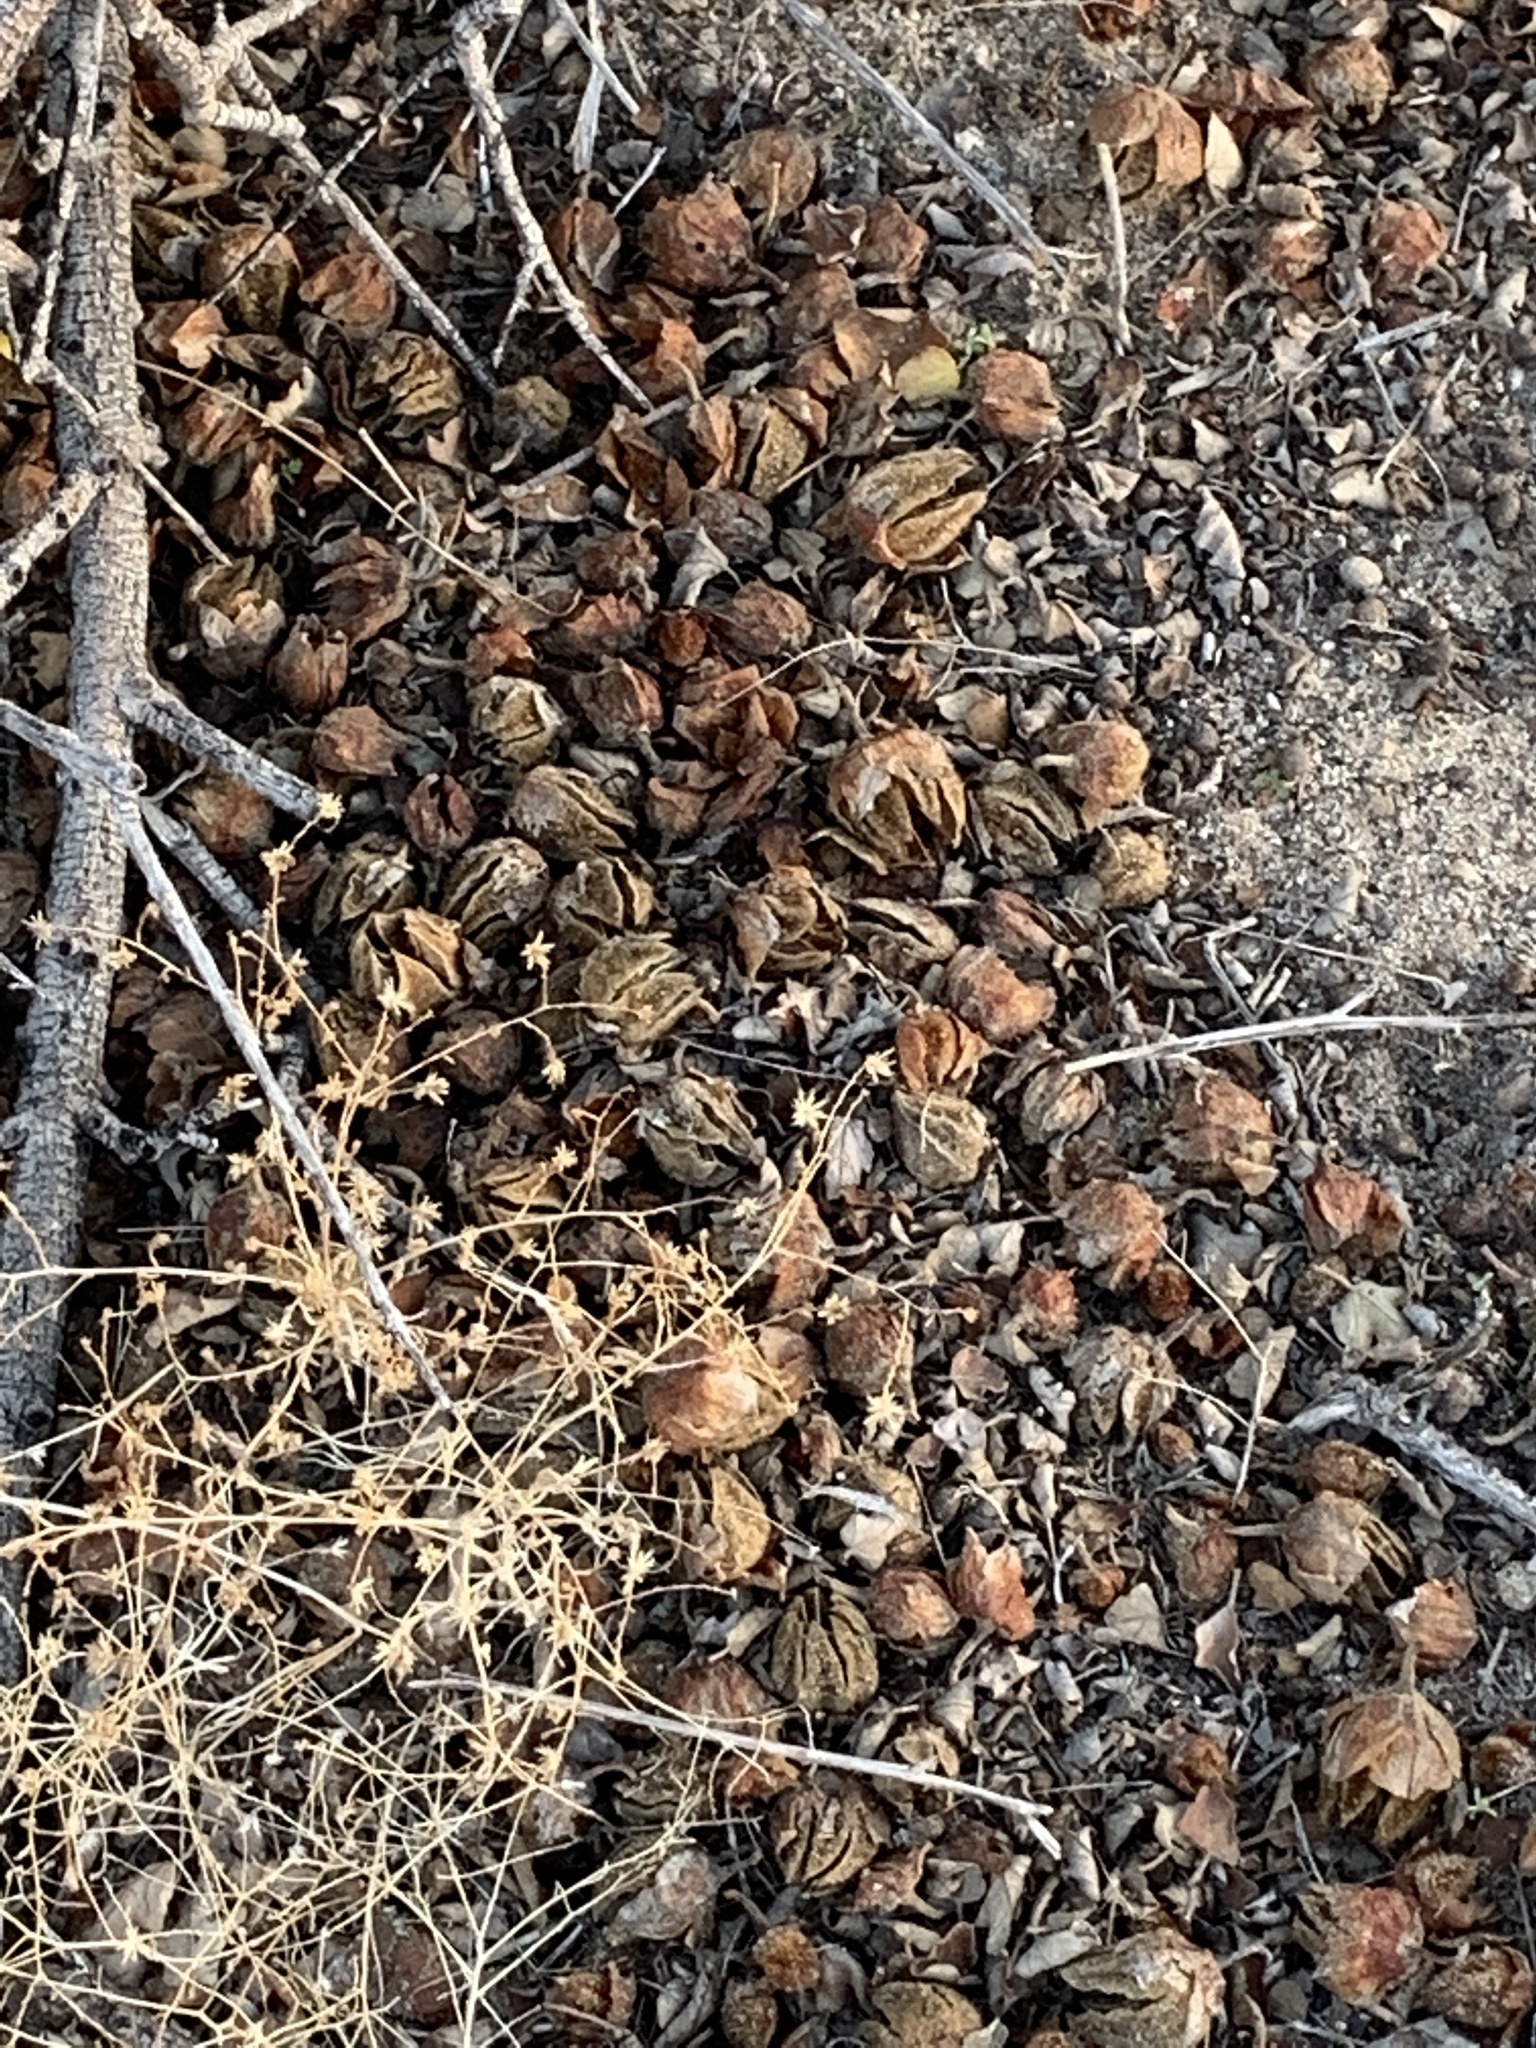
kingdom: Plantae
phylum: Tracheophyta
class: Magnoliopsida
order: Malvales
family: Malvaceae
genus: Fremontodendron
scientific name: Fremontodendron californicum
